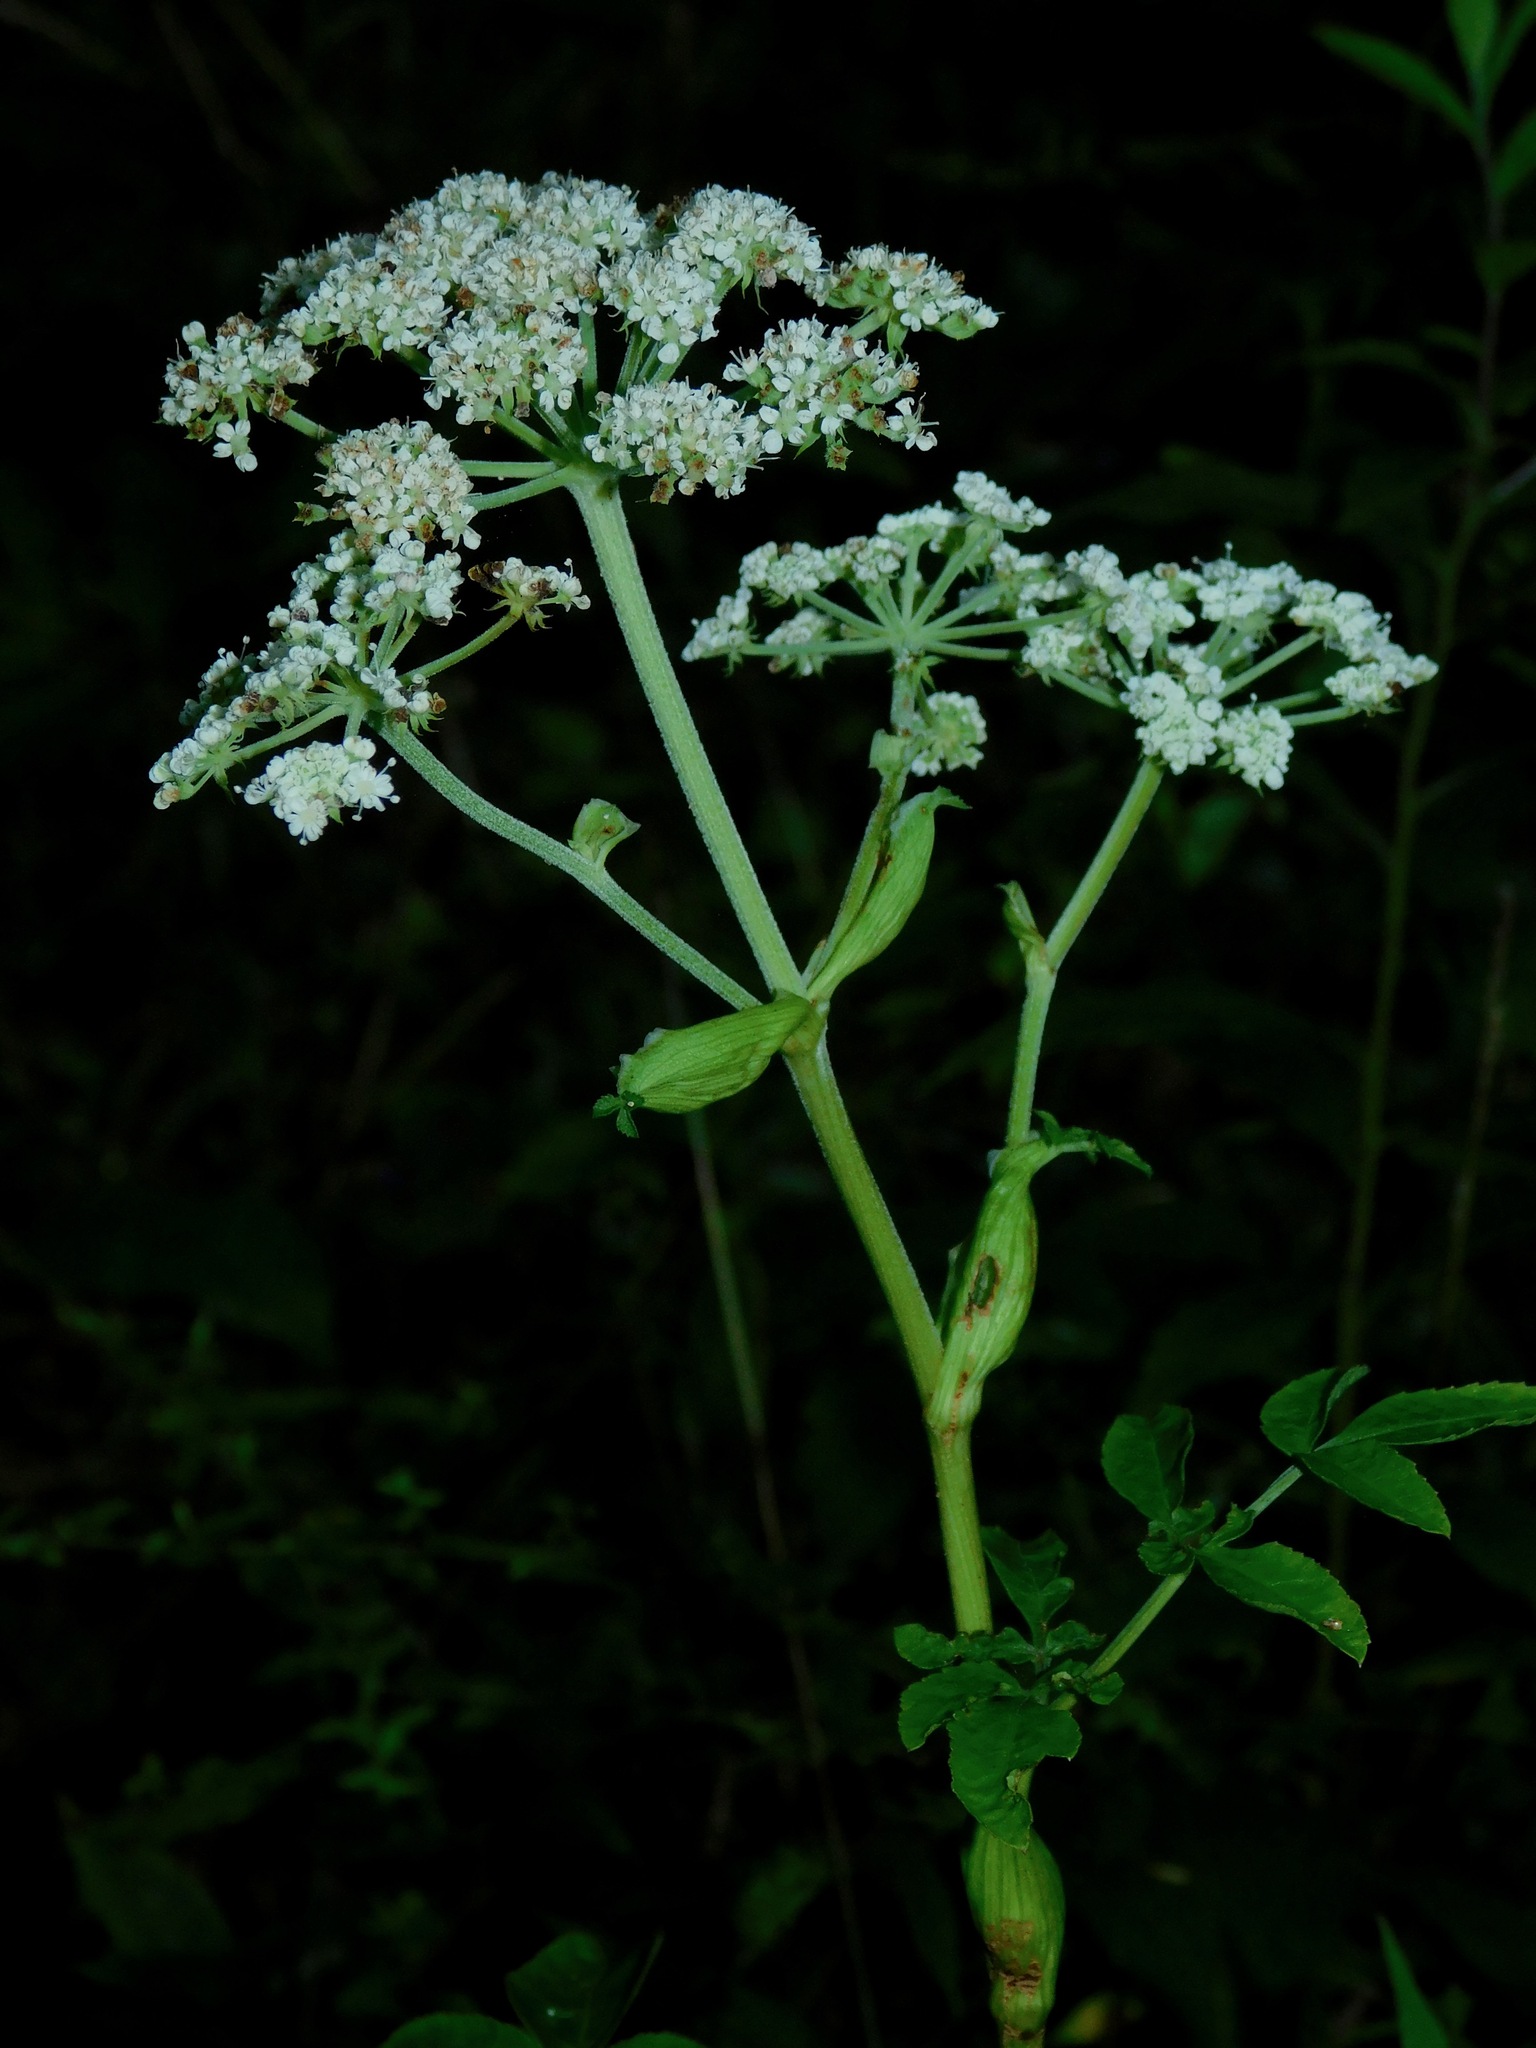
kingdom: Plantae
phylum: Tracheophyta
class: Magnoliopsida
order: Apiales
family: Apiaceae
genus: Angelica
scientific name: Angelica venenosa
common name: Hairy angelica
